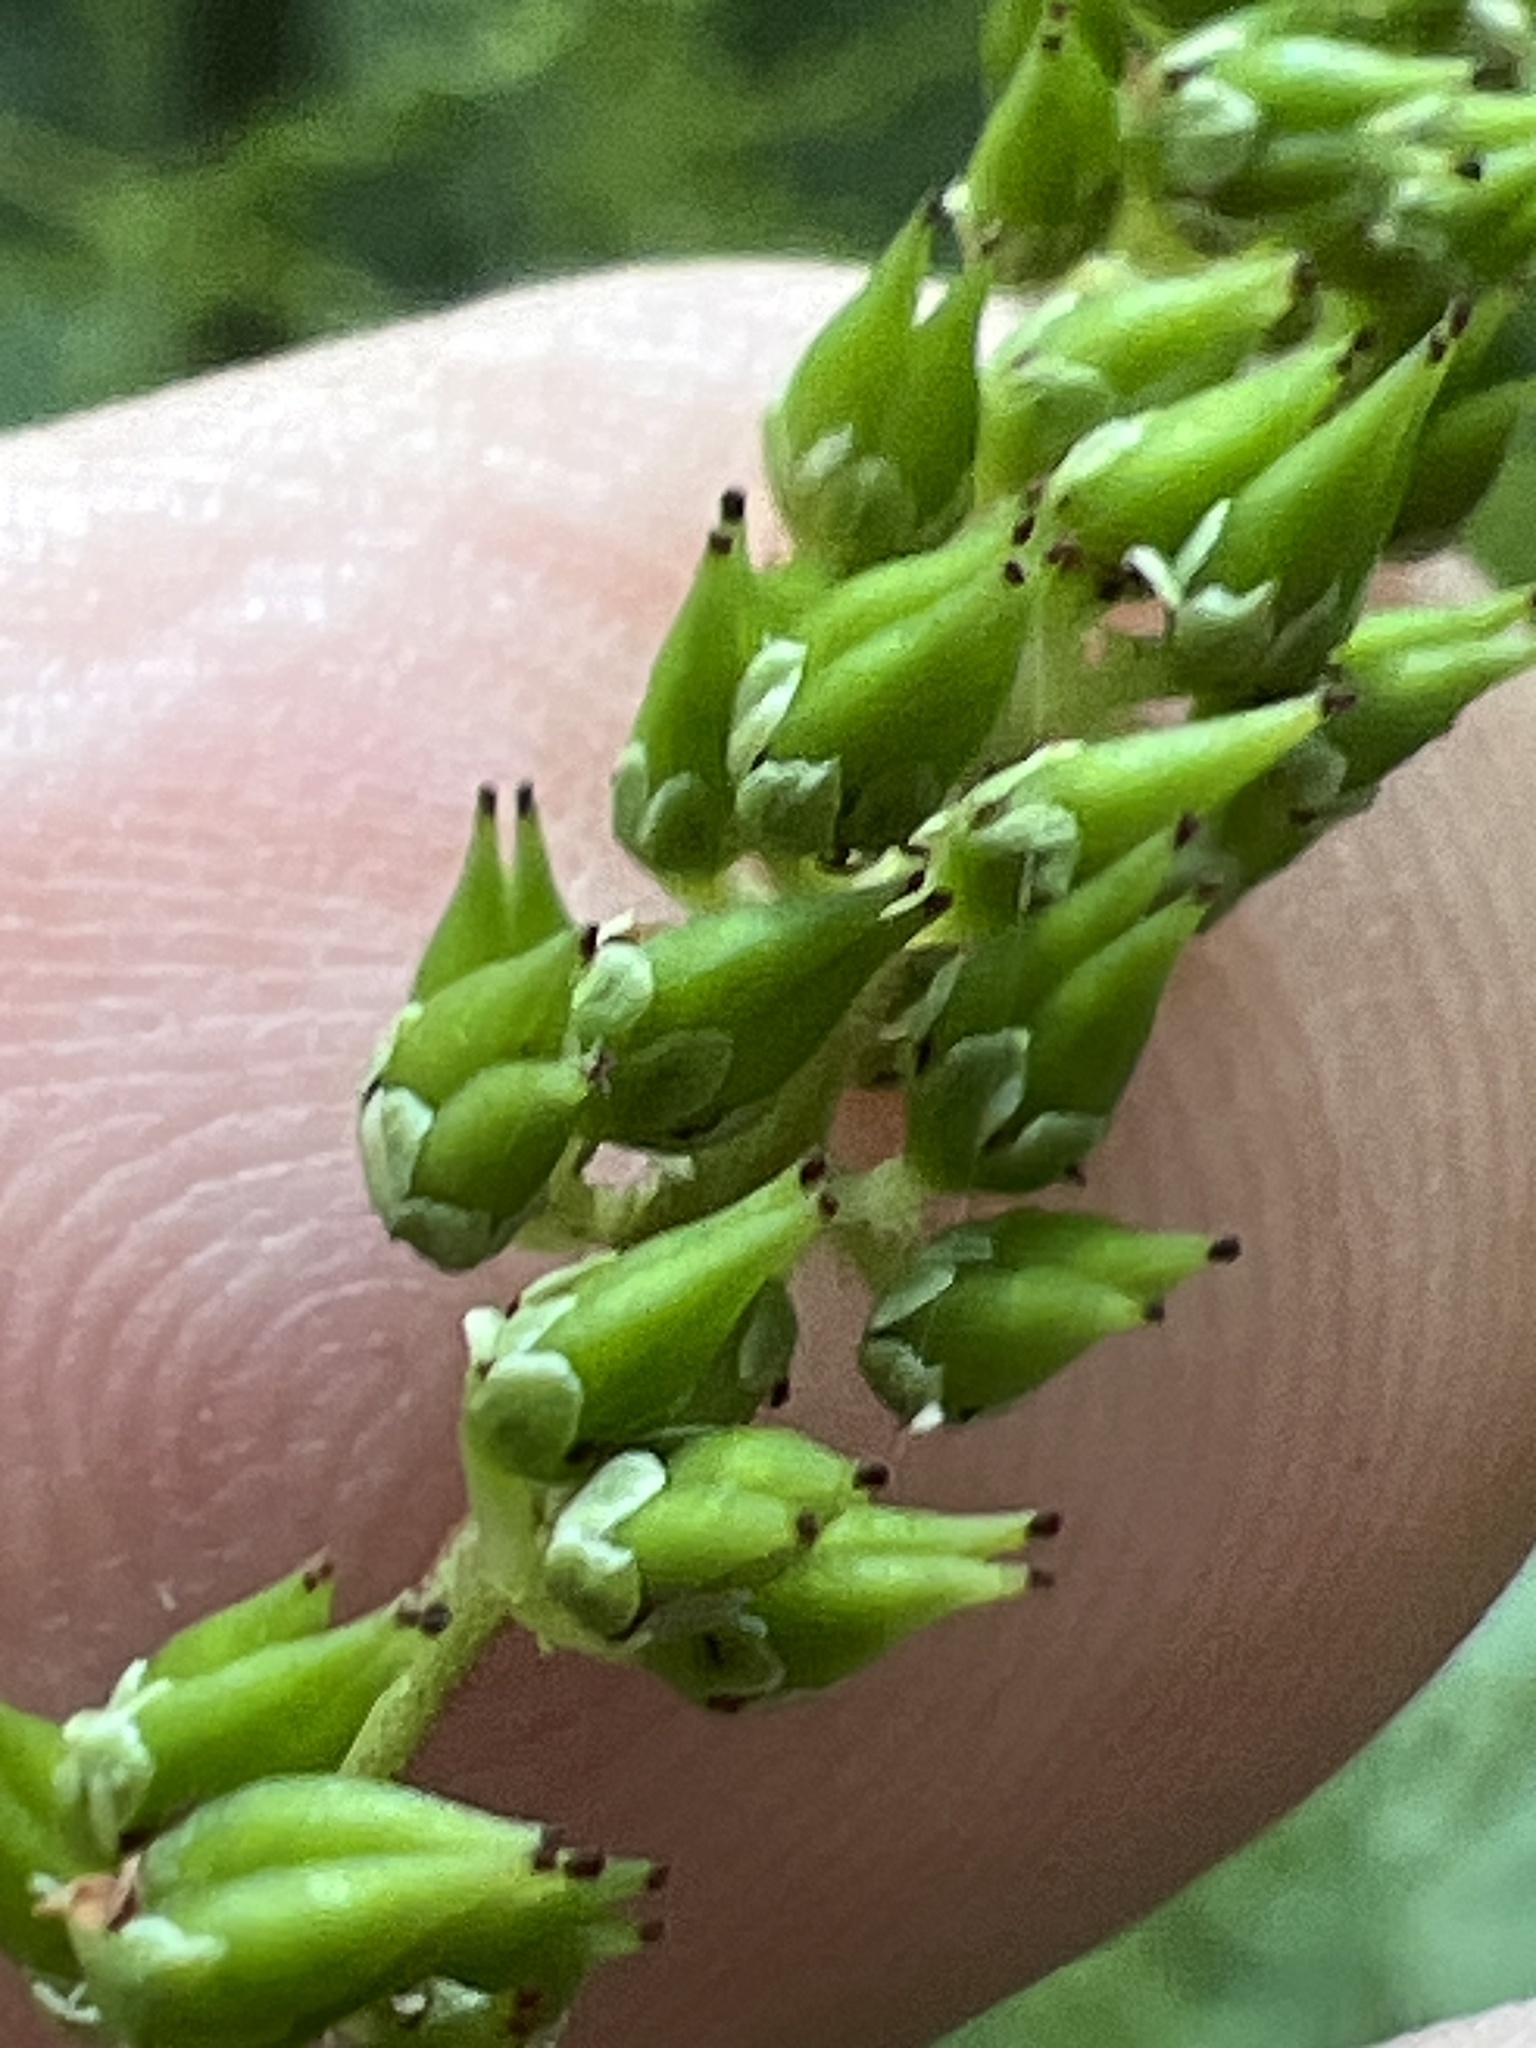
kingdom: Plantae
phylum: Tracheophyta
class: Magnoliopsida
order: Saxifragales
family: Saxifragaceae
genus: Astilbe
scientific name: Astilbe biternata
